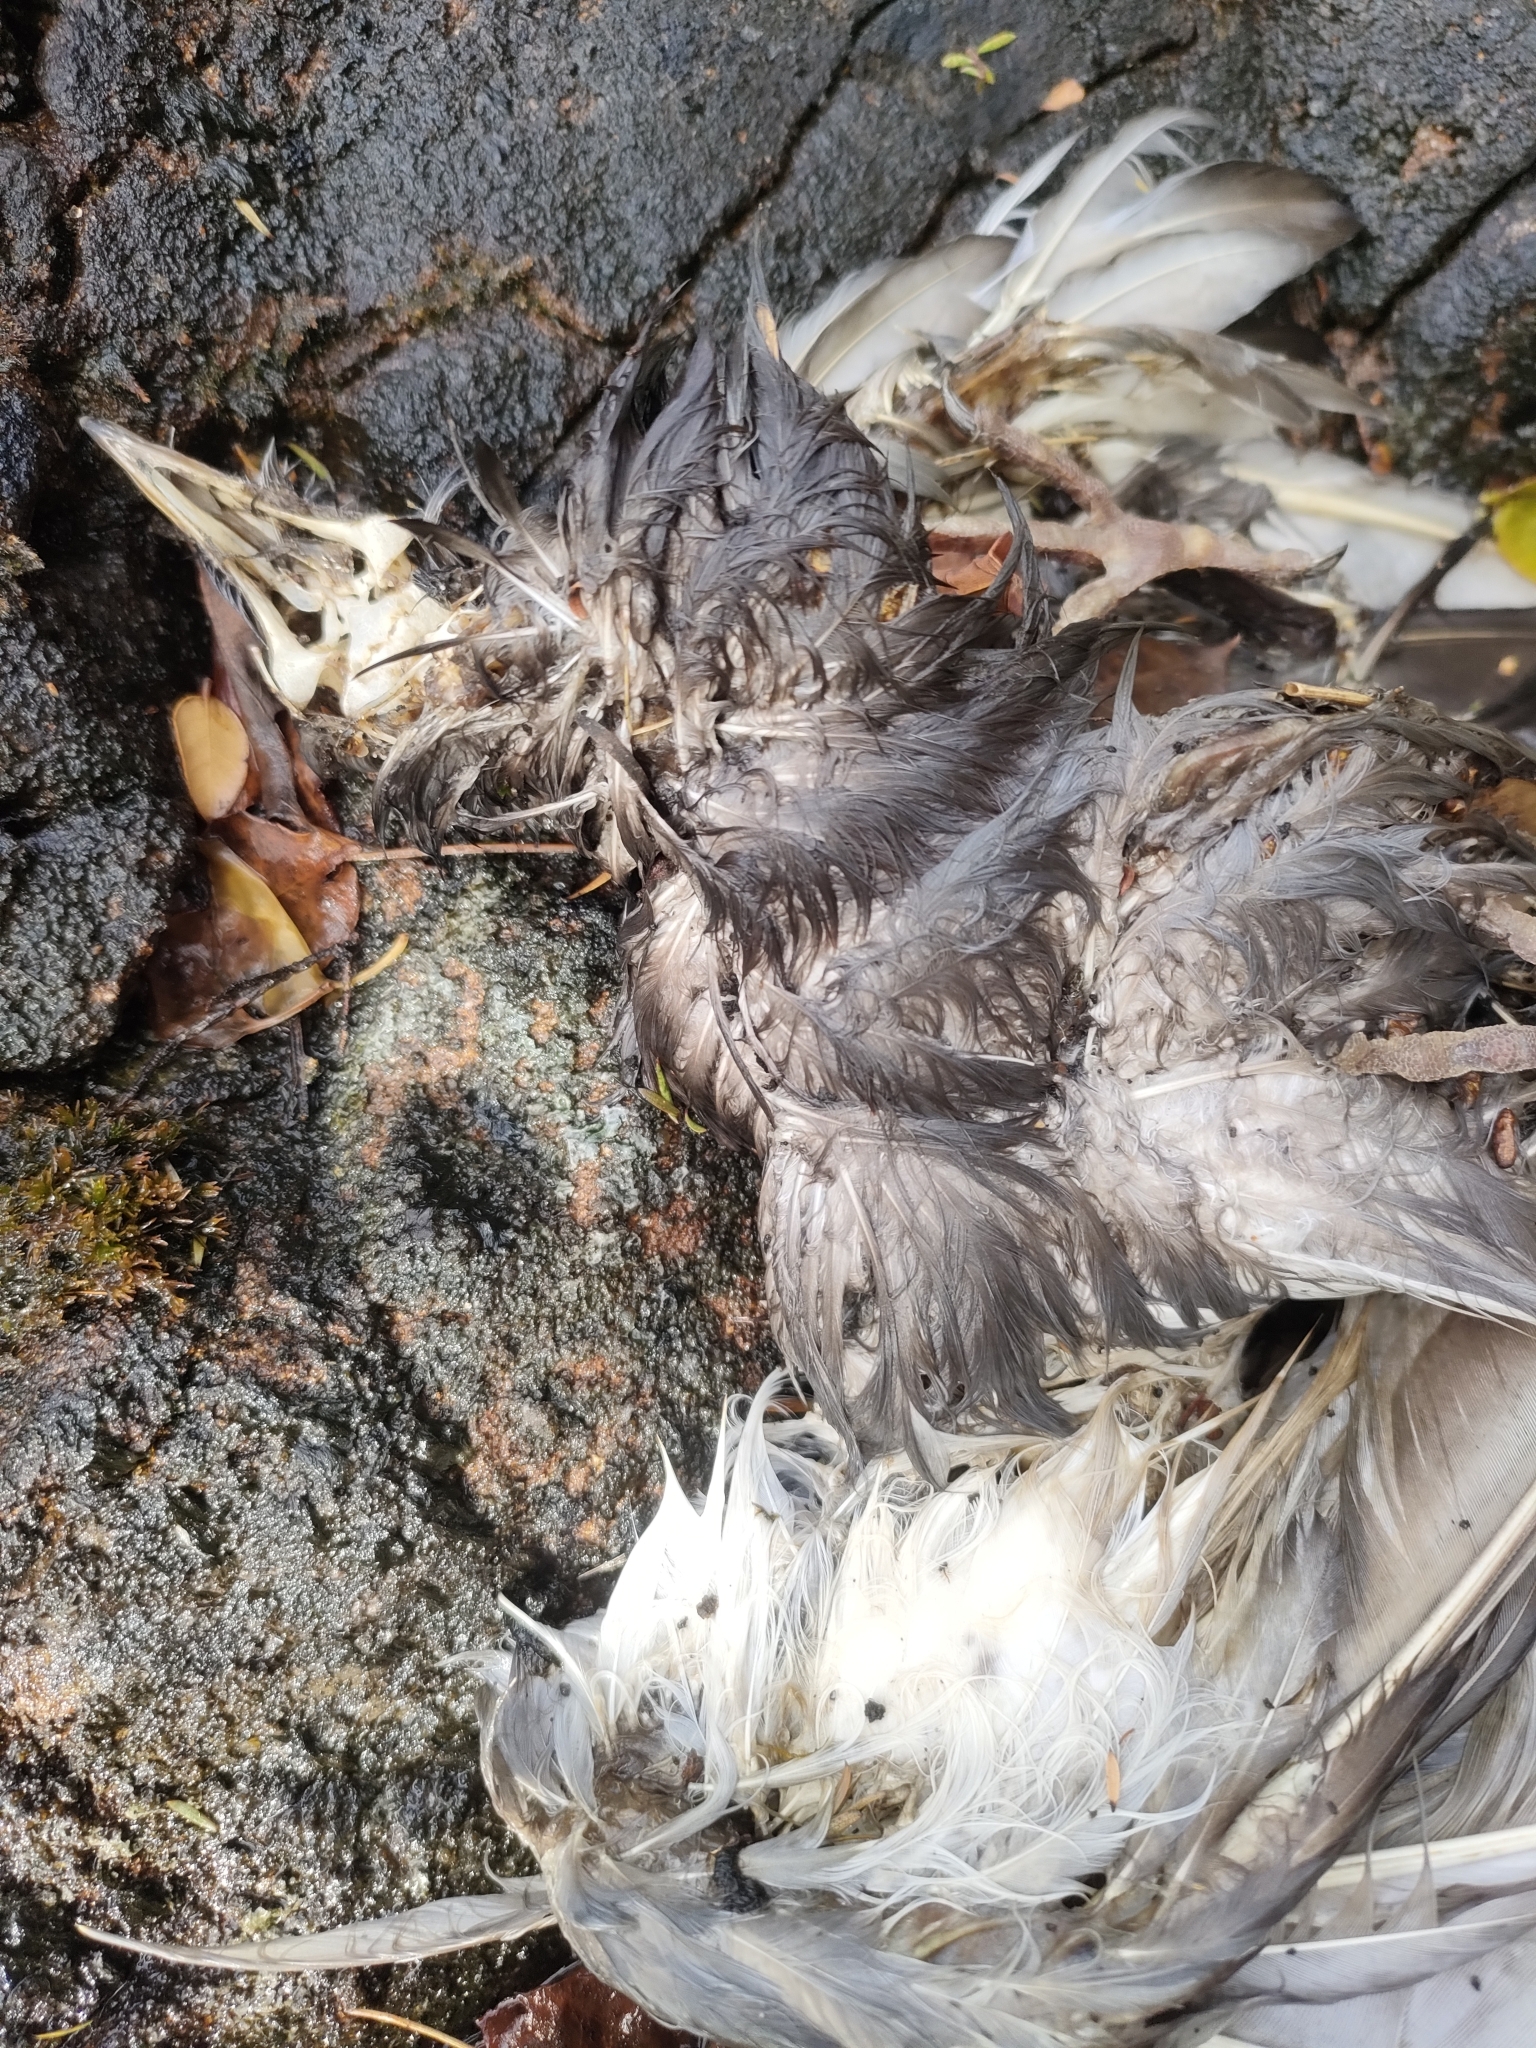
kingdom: Animalia
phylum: Chordata
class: Aves
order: Columbiformes
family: Columbidae
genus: Columba
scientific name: Columba livia
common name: Rock pigeon
